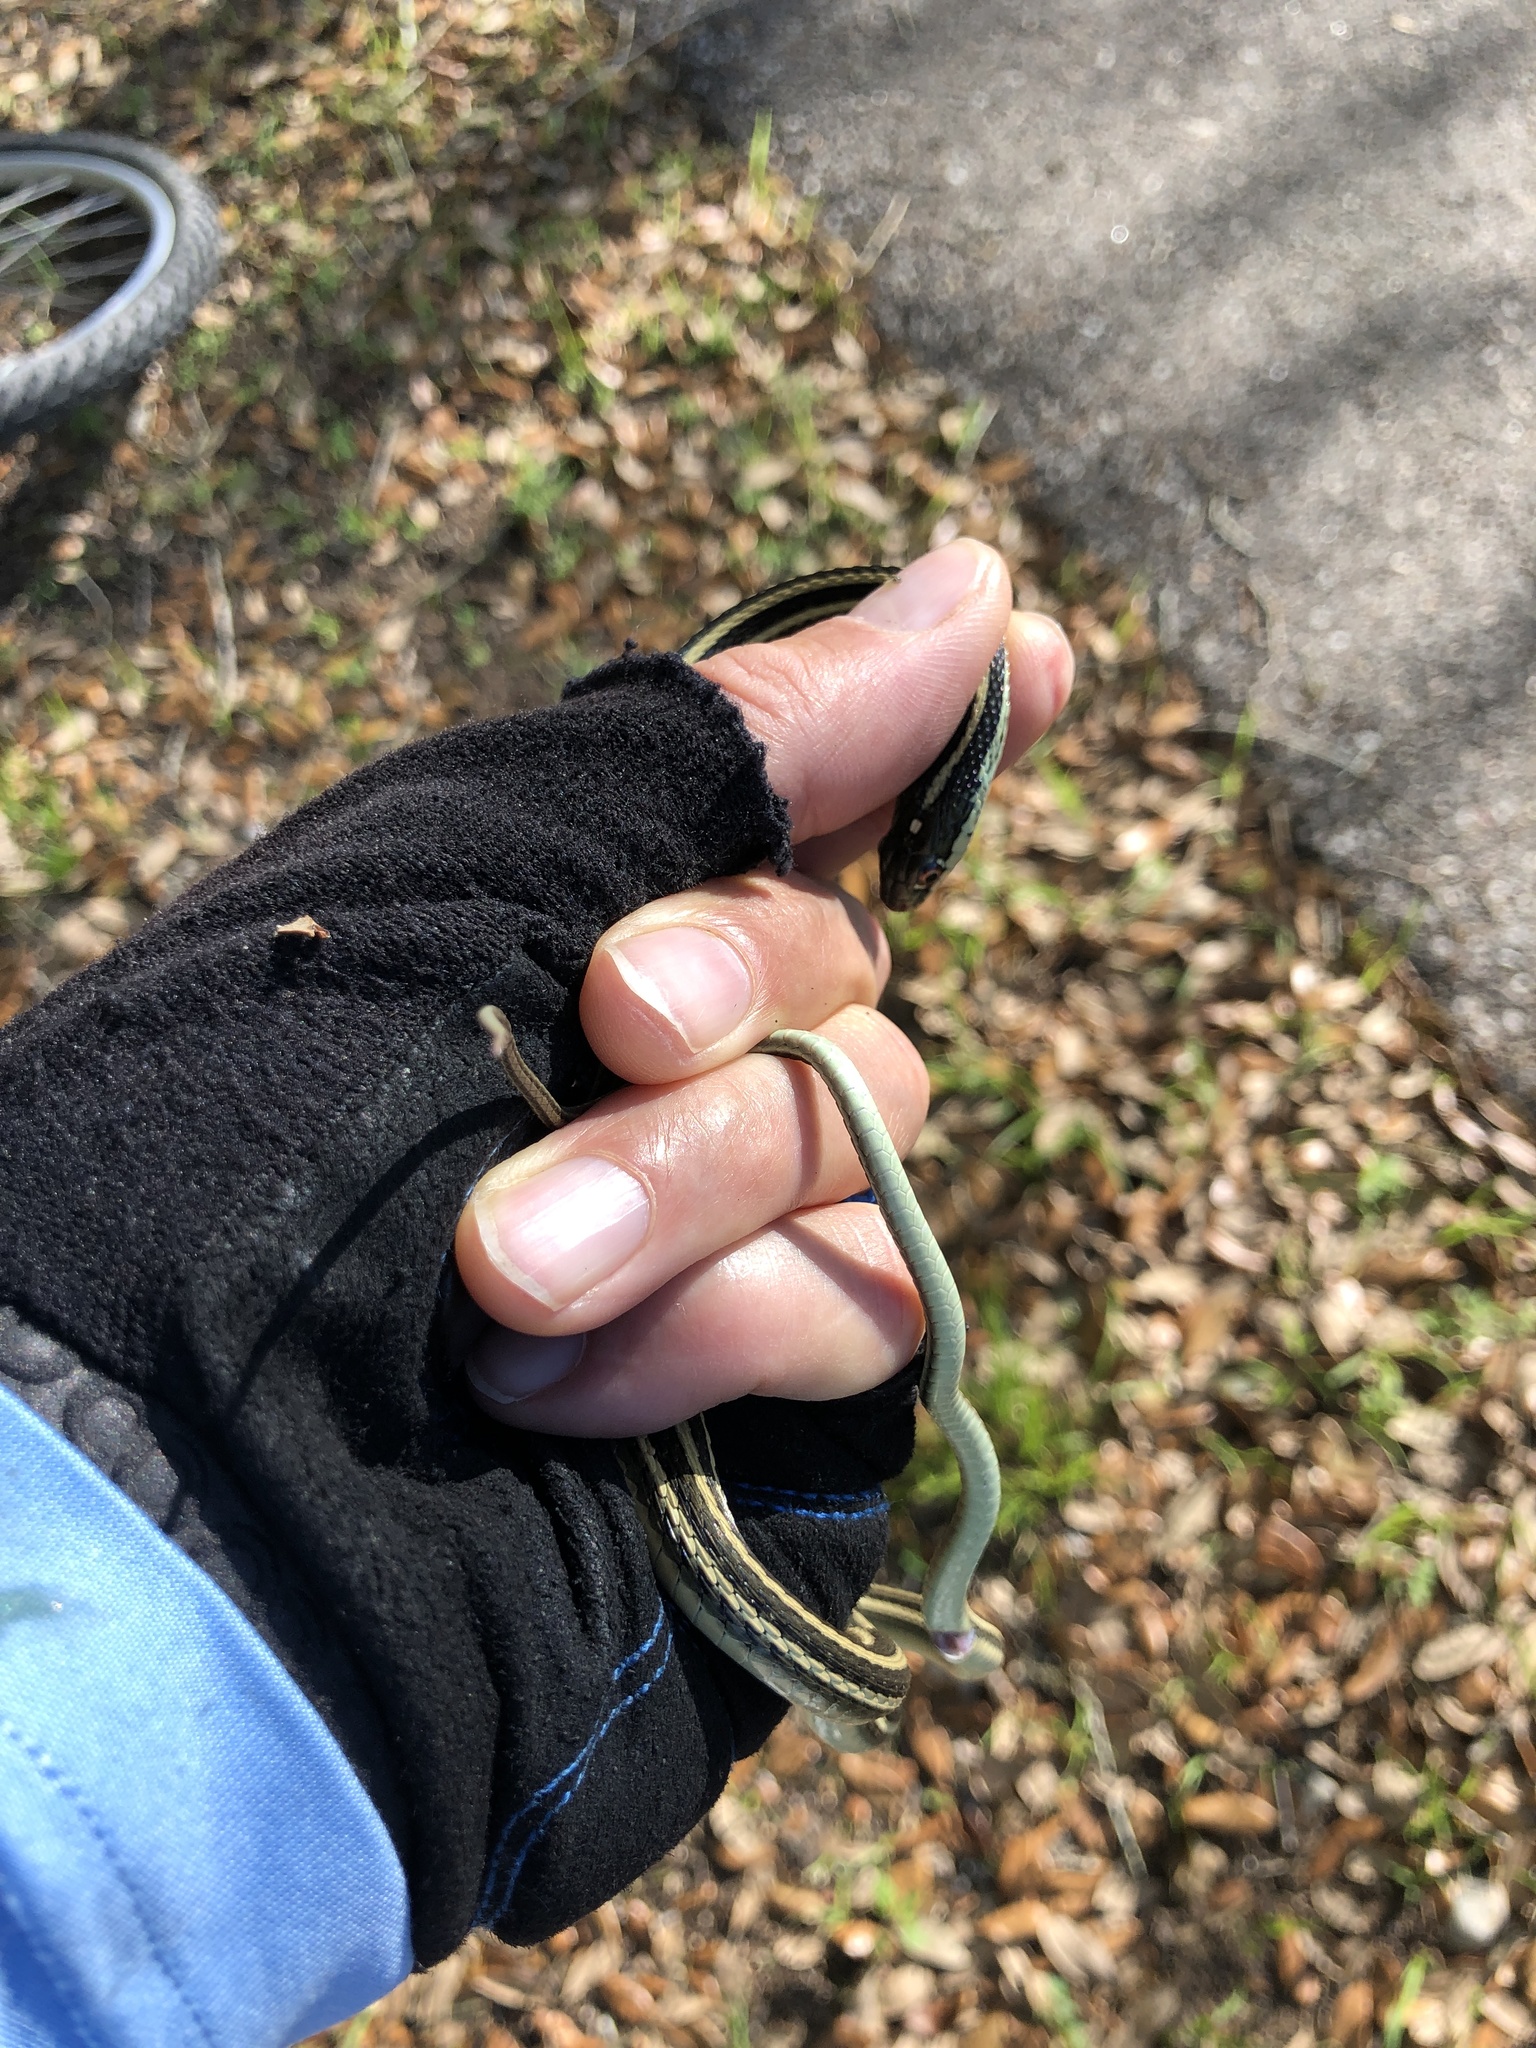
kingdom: Animalia
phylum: Chordata
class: Squamata
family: Colubridae
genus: Thamnophis
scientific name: Thamnophis proximus
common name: Western ribbon snake
